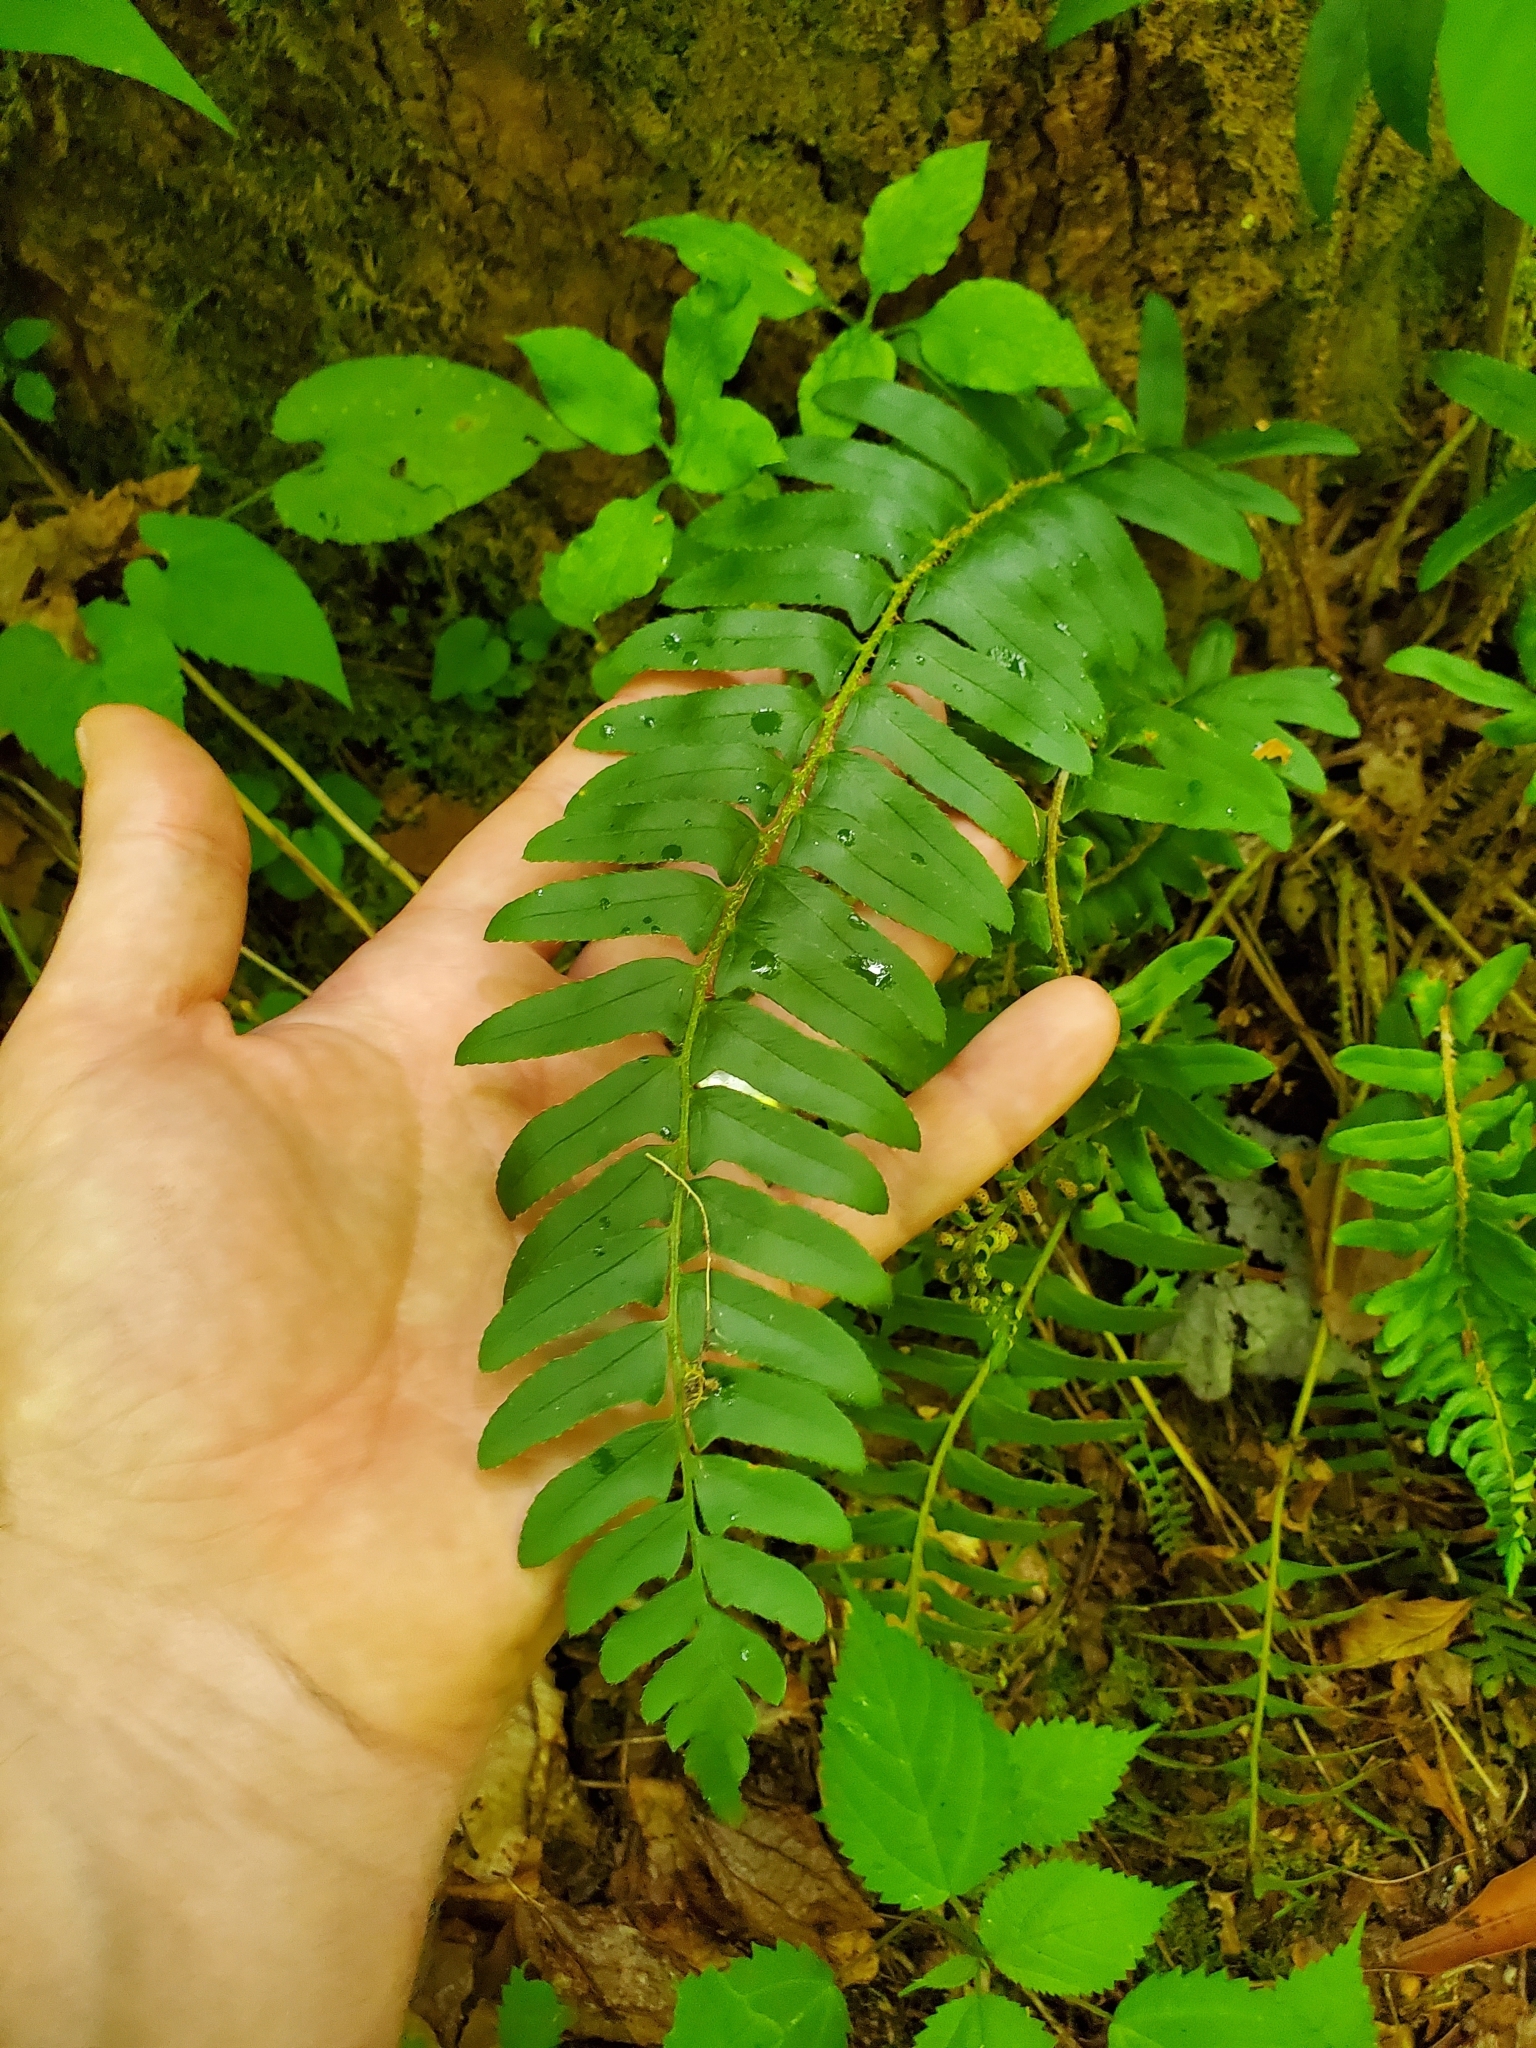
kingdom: Plantae
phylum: Tracheophyta
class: Polypodiopsida
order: Polypodiales
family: Dryopteridaceae
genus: Polystichum
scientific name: Polystichum acrostichoides
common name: Christmas fern
